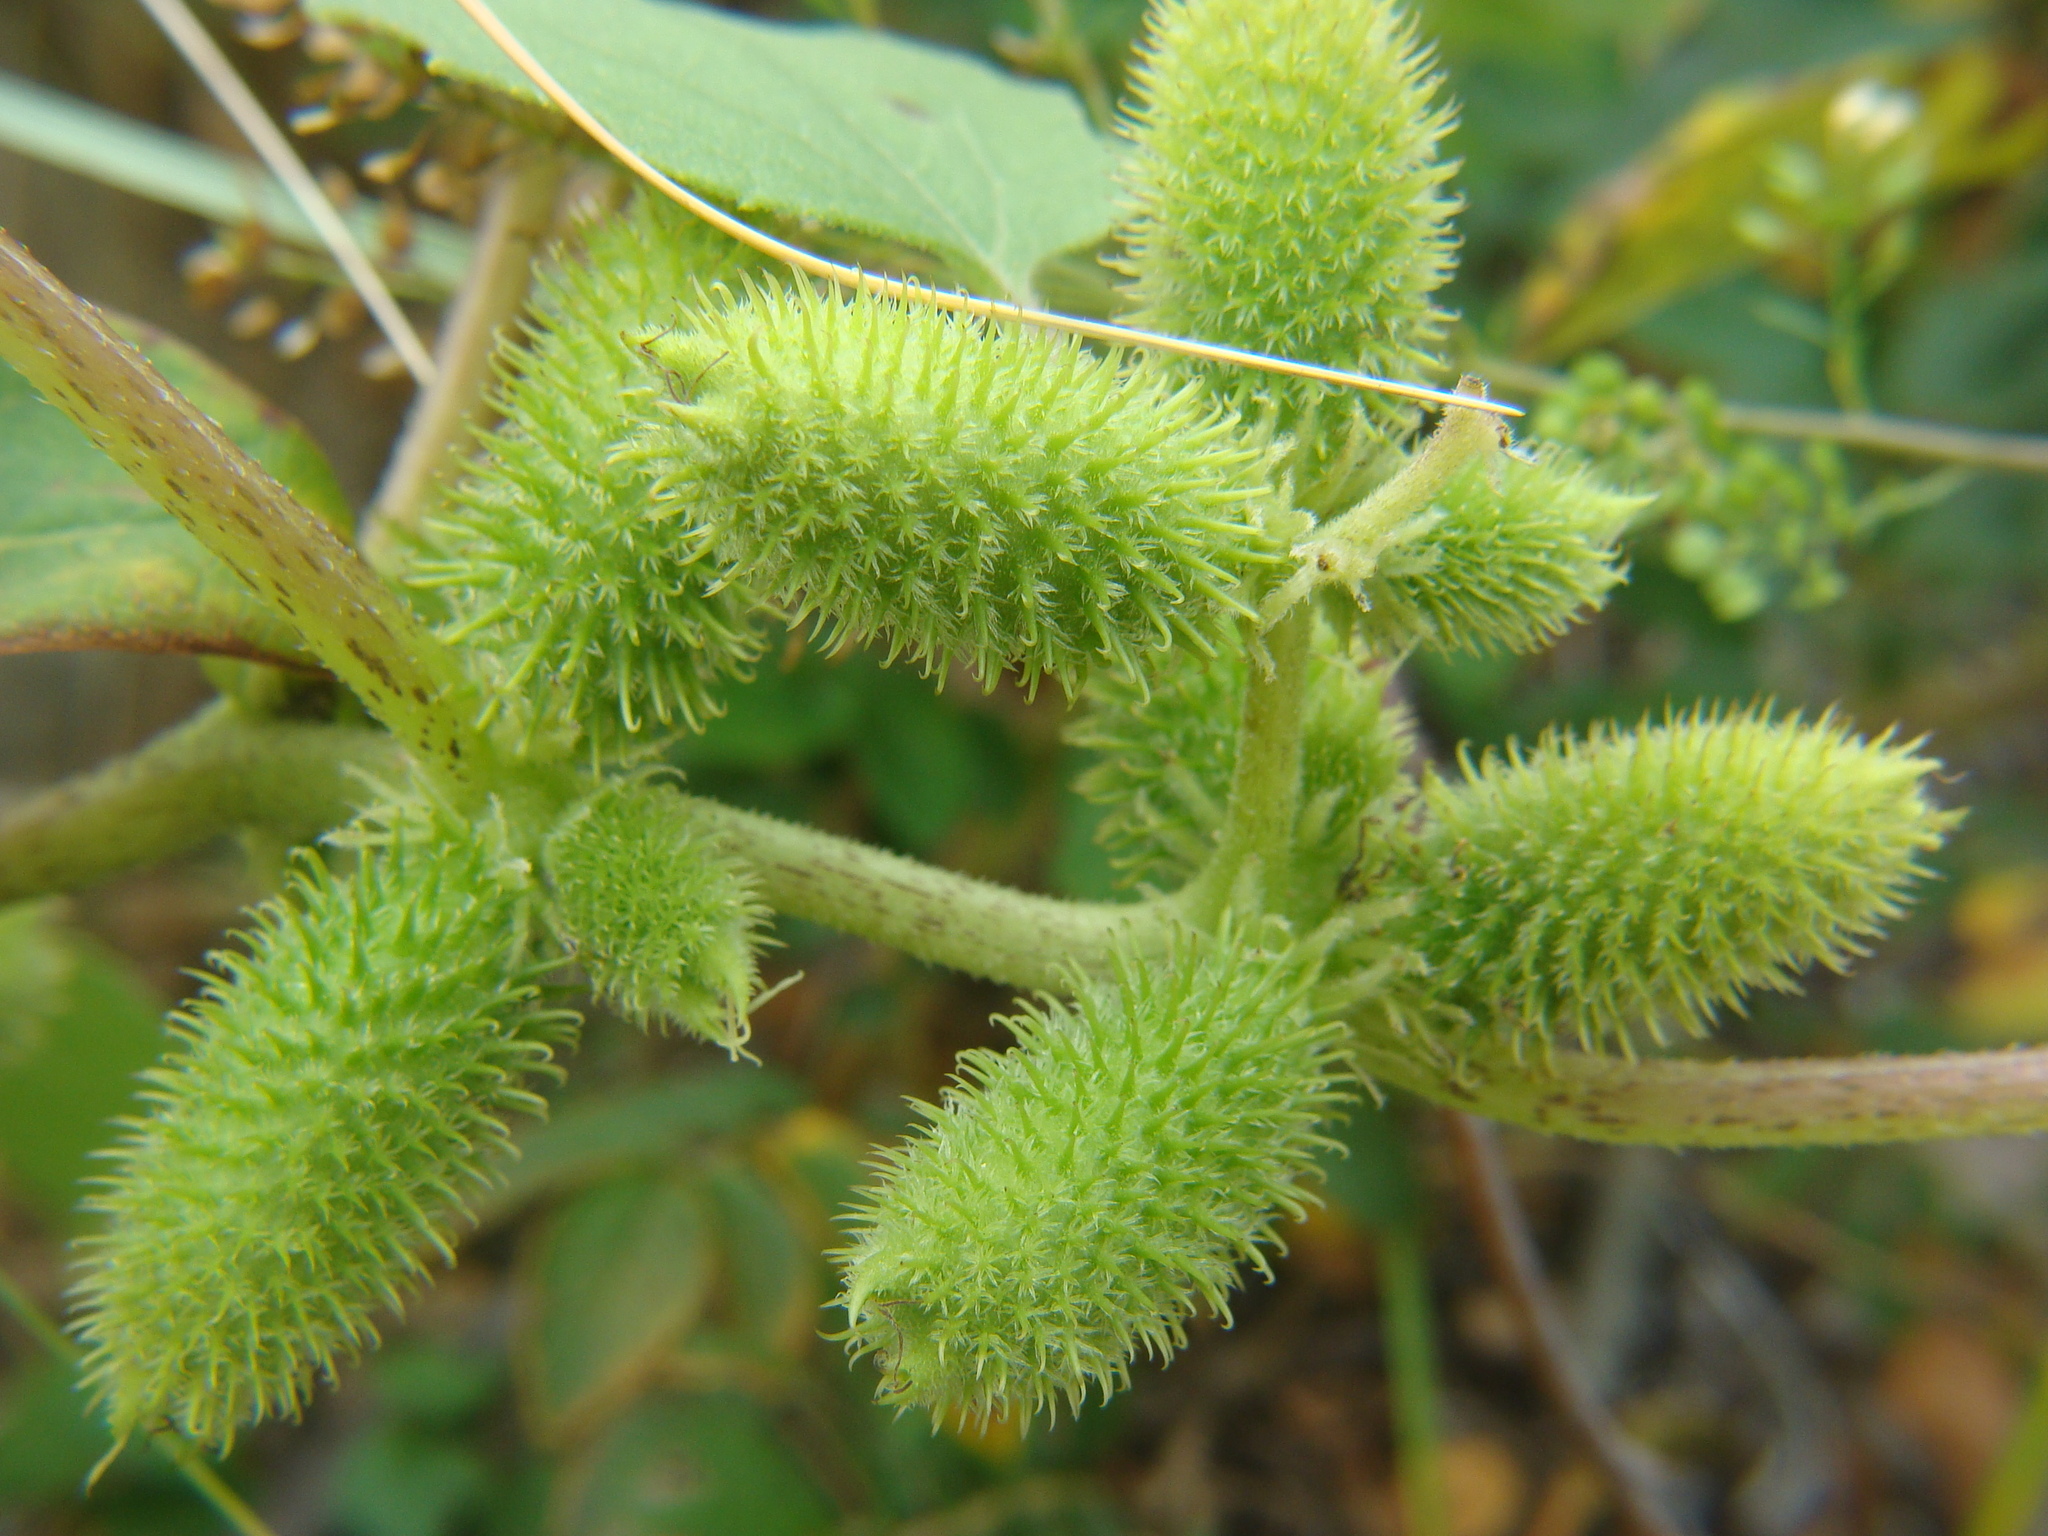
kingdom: Plantae
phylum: Tracheophyta
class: Magnoliopsida
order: Asterales
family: Asteraceae
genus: Xanthium
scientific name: Xanthium strumarium
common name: Rough cocklebur
